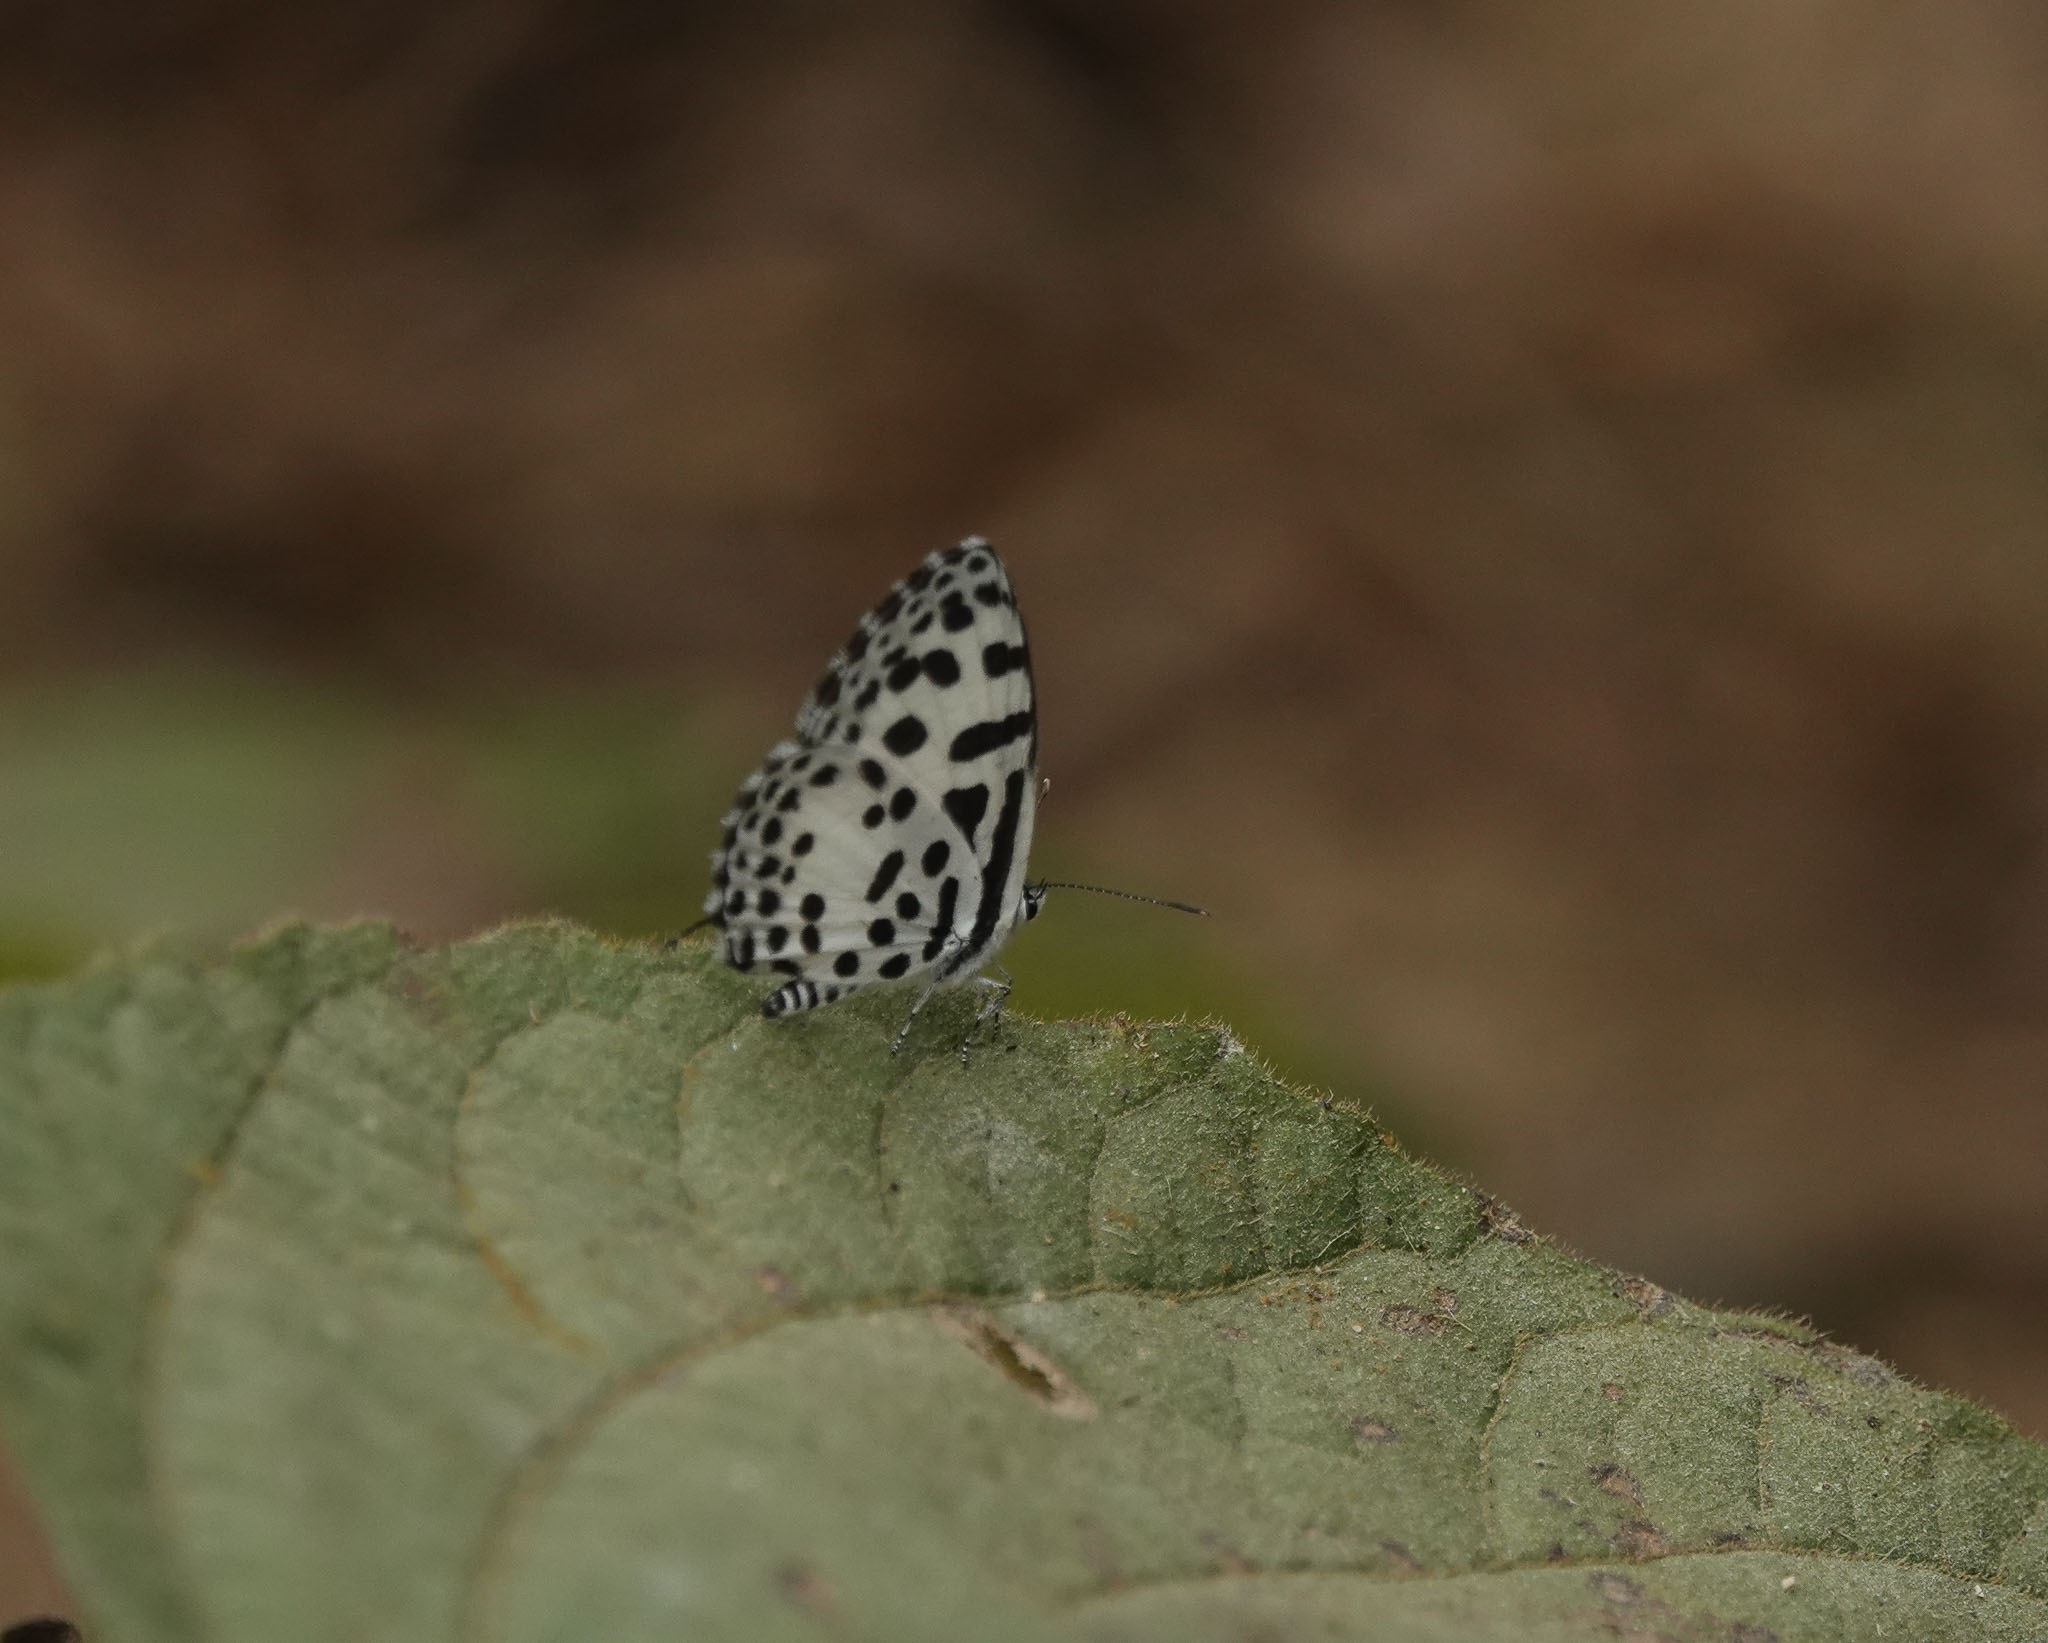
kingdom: Animalia
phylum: Arthropoda
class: Insecta
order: Lepidoptera
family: Lycaenidae
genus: Castalius
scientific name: Castalius rosimon
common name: Common pierrot
